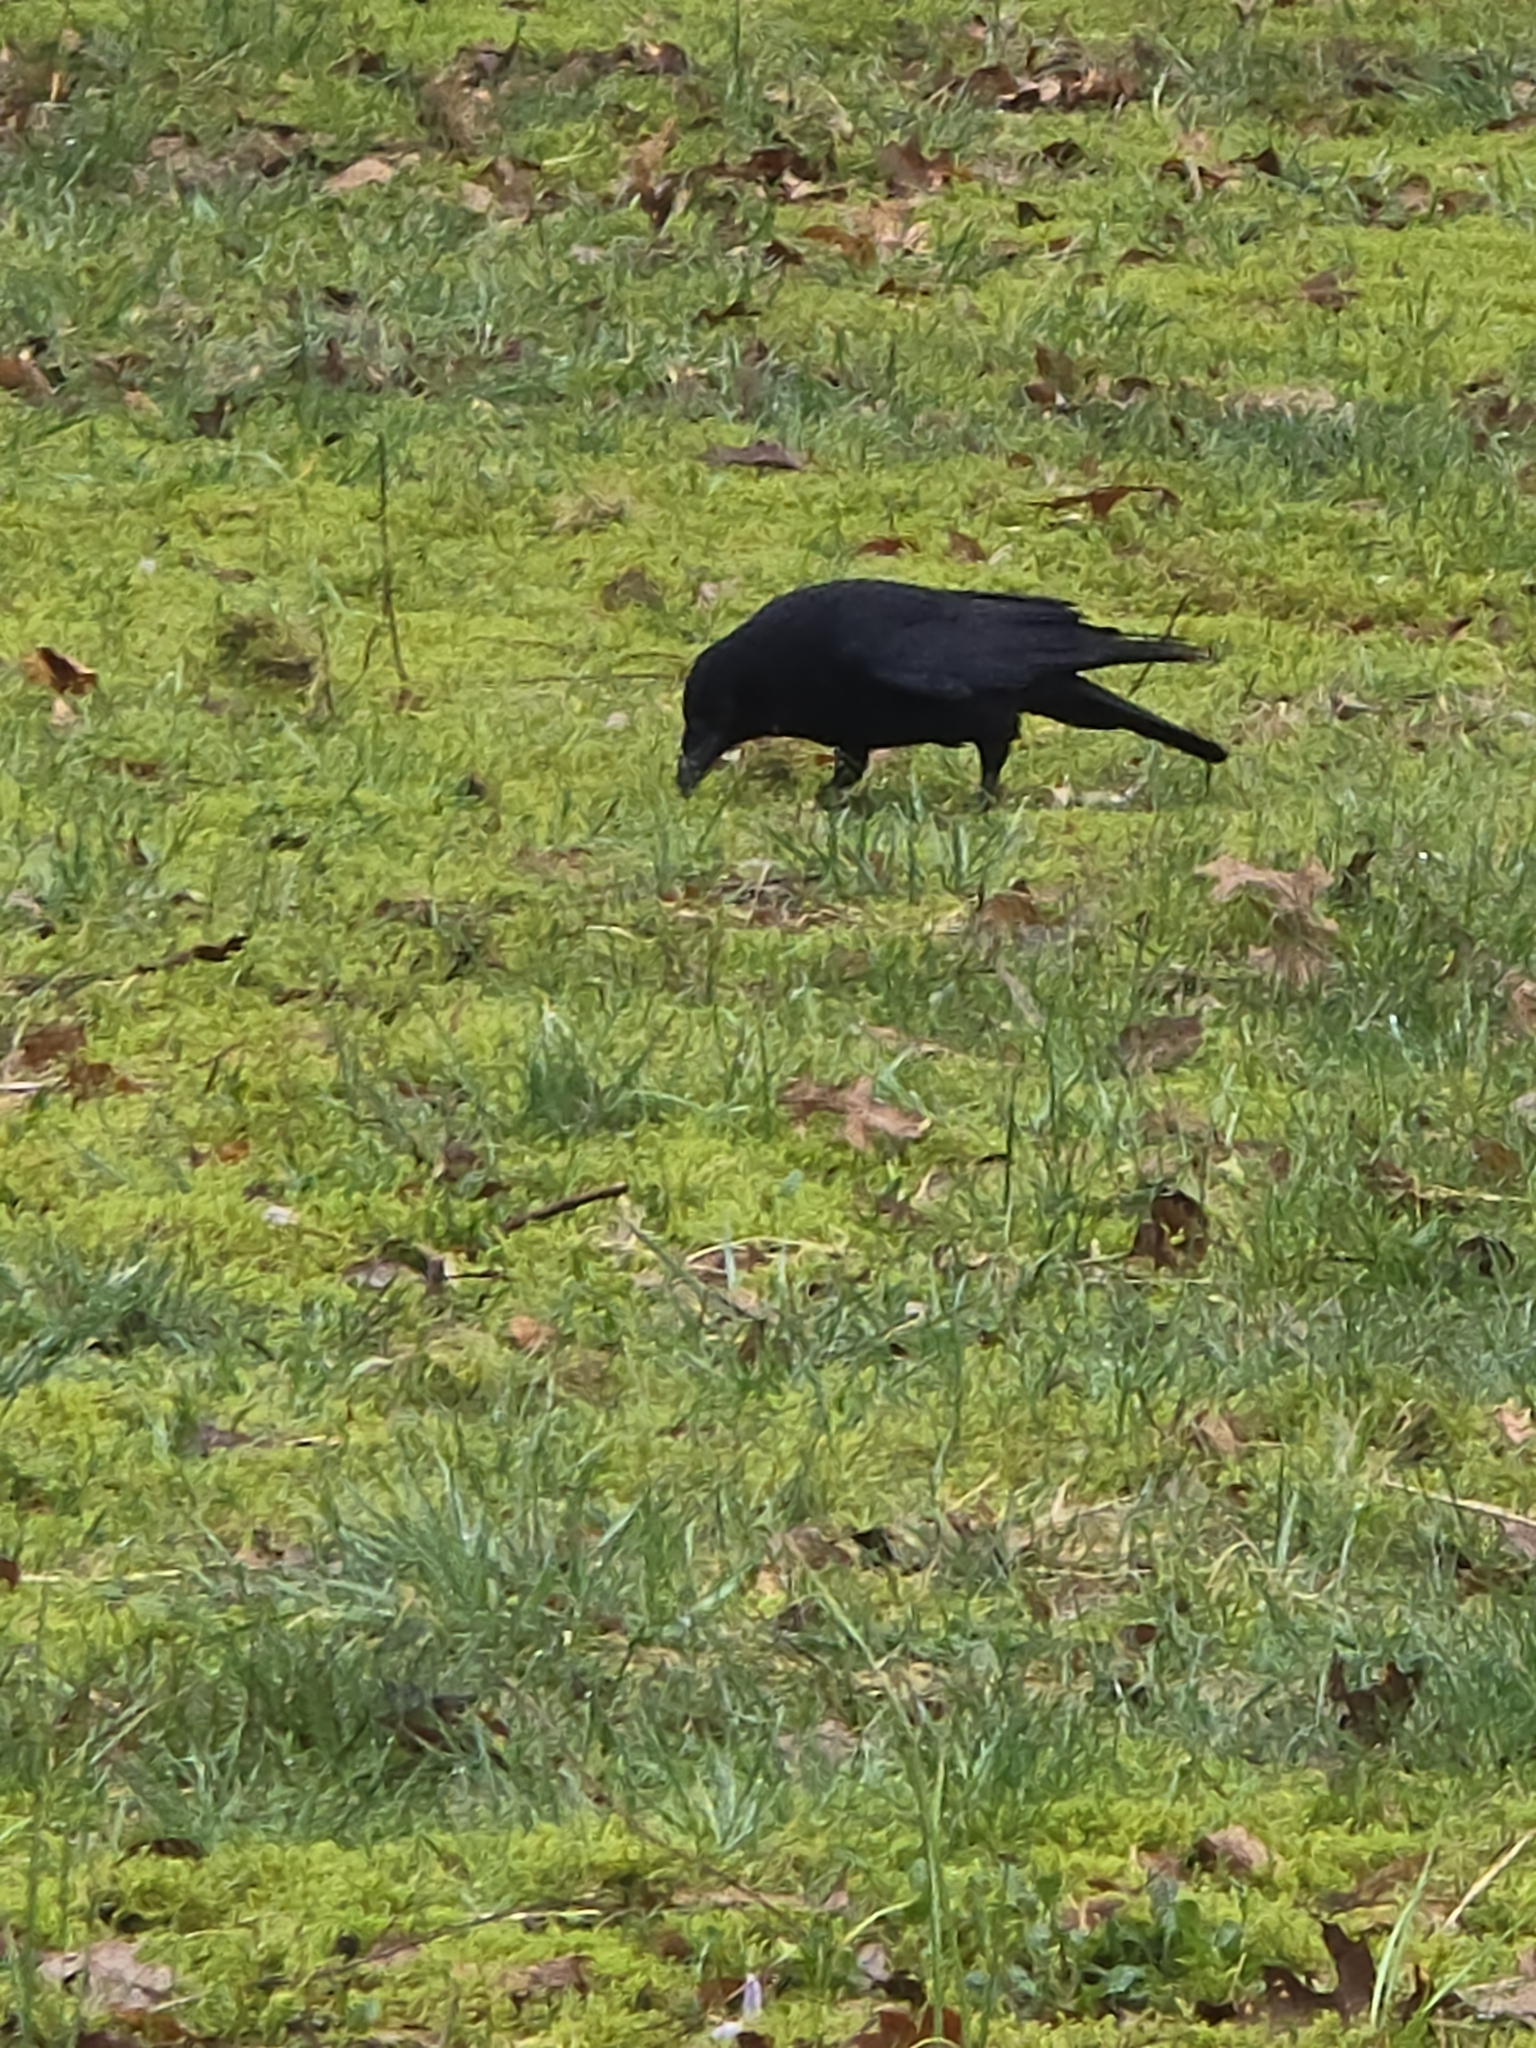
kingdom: Animalia
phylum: Chordata
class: Aves
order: Passeriformes
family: Corvidae
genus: Corvus
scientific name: Corvus corone
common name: Carrion crow
